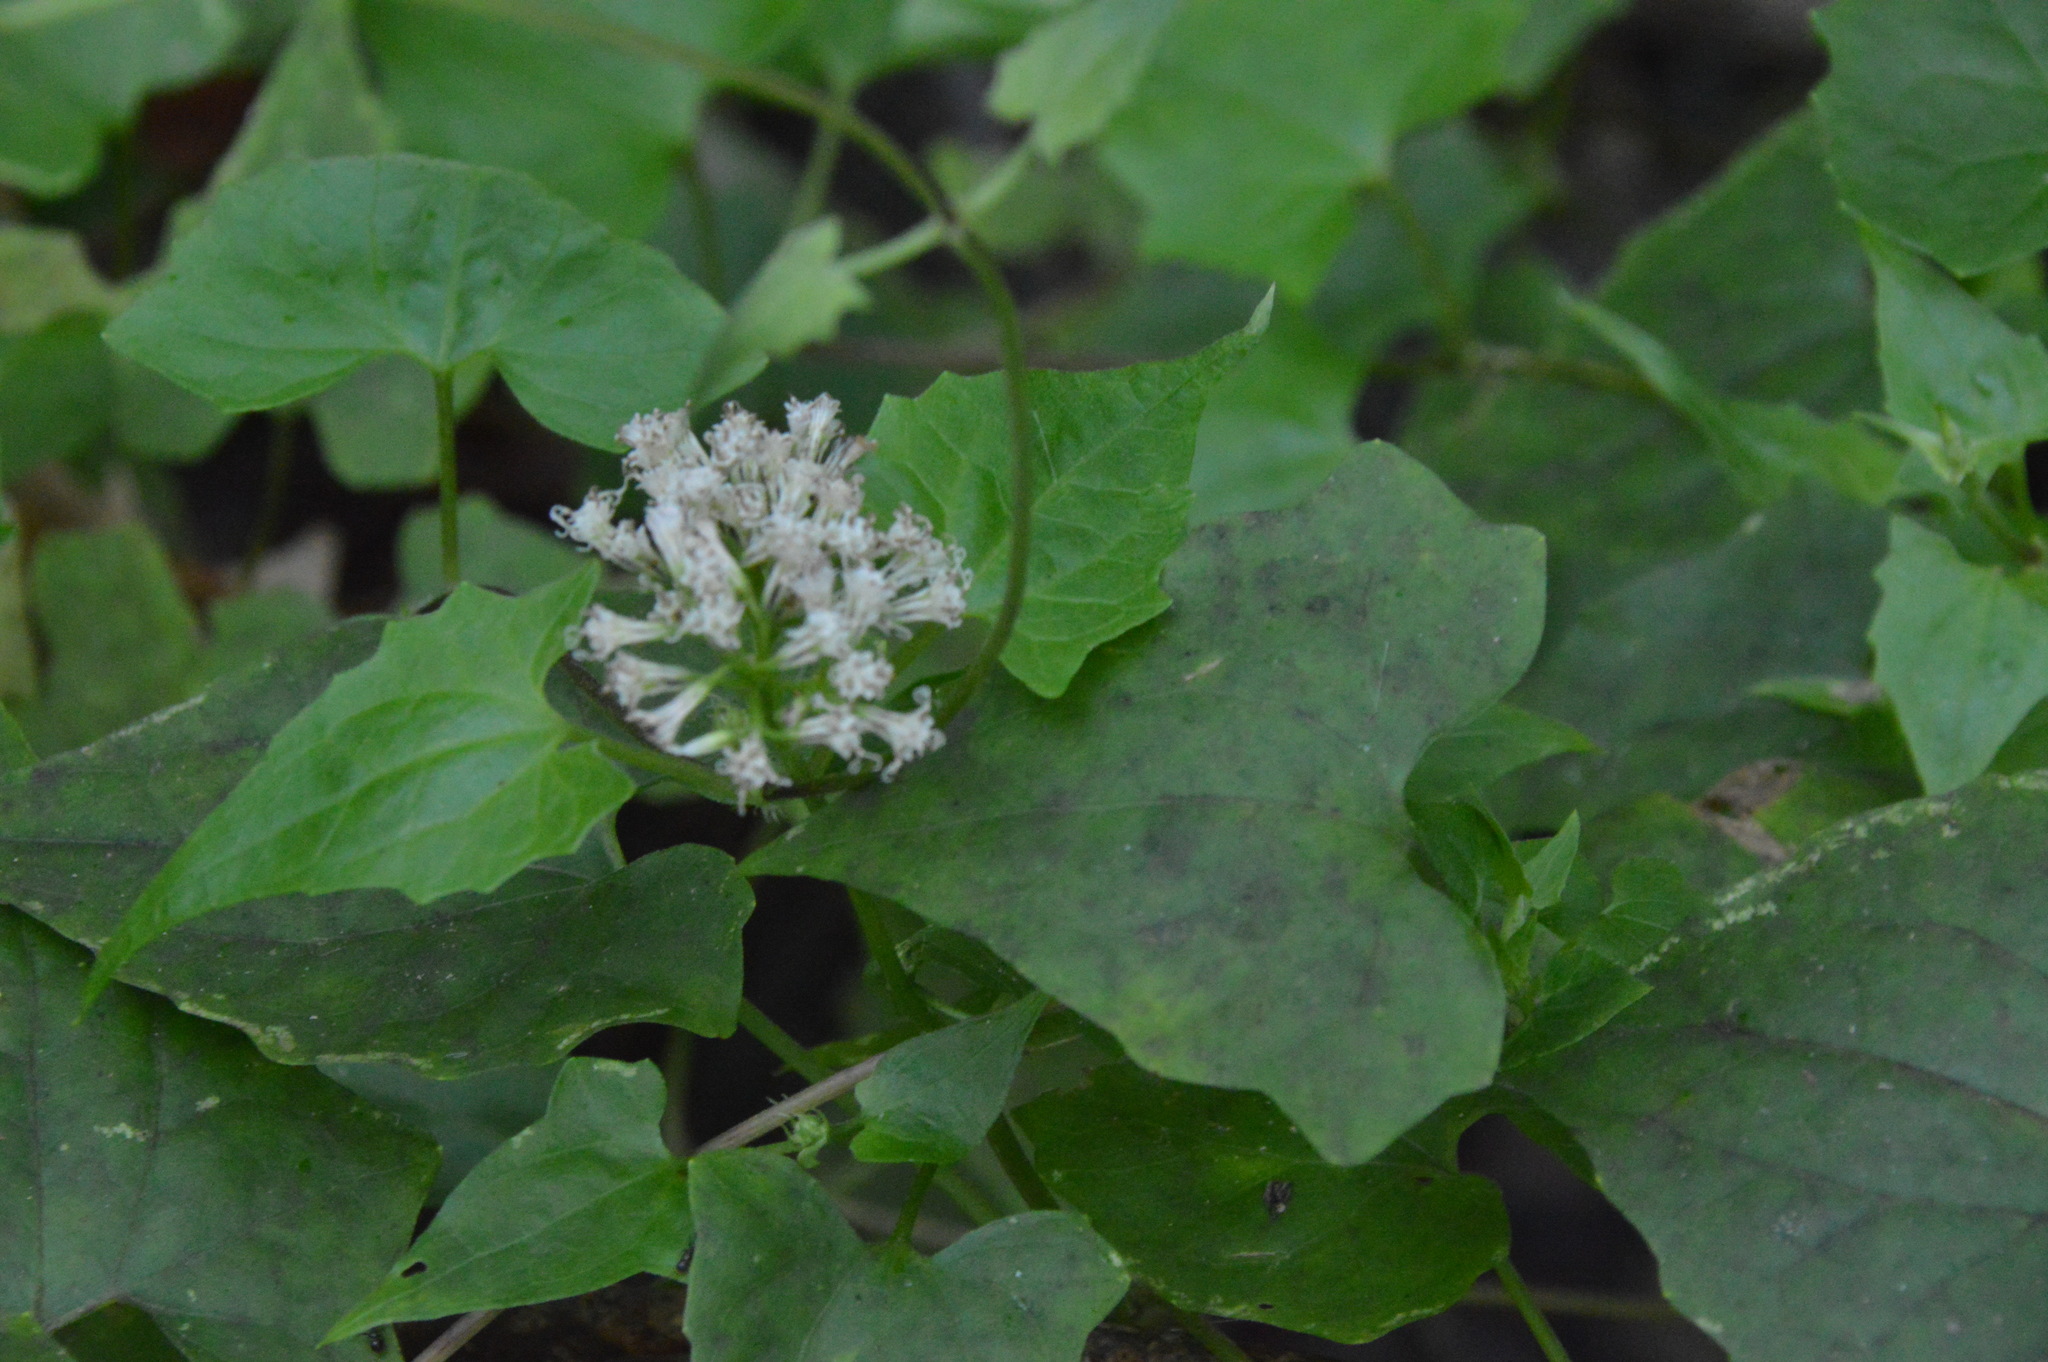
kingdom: Plantae
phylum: Tracheophyta
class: Magnoliopsida
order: Asterales
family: Asteraceae
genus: Mikania
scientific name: Mikania scandens
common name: Climbing hempvine
